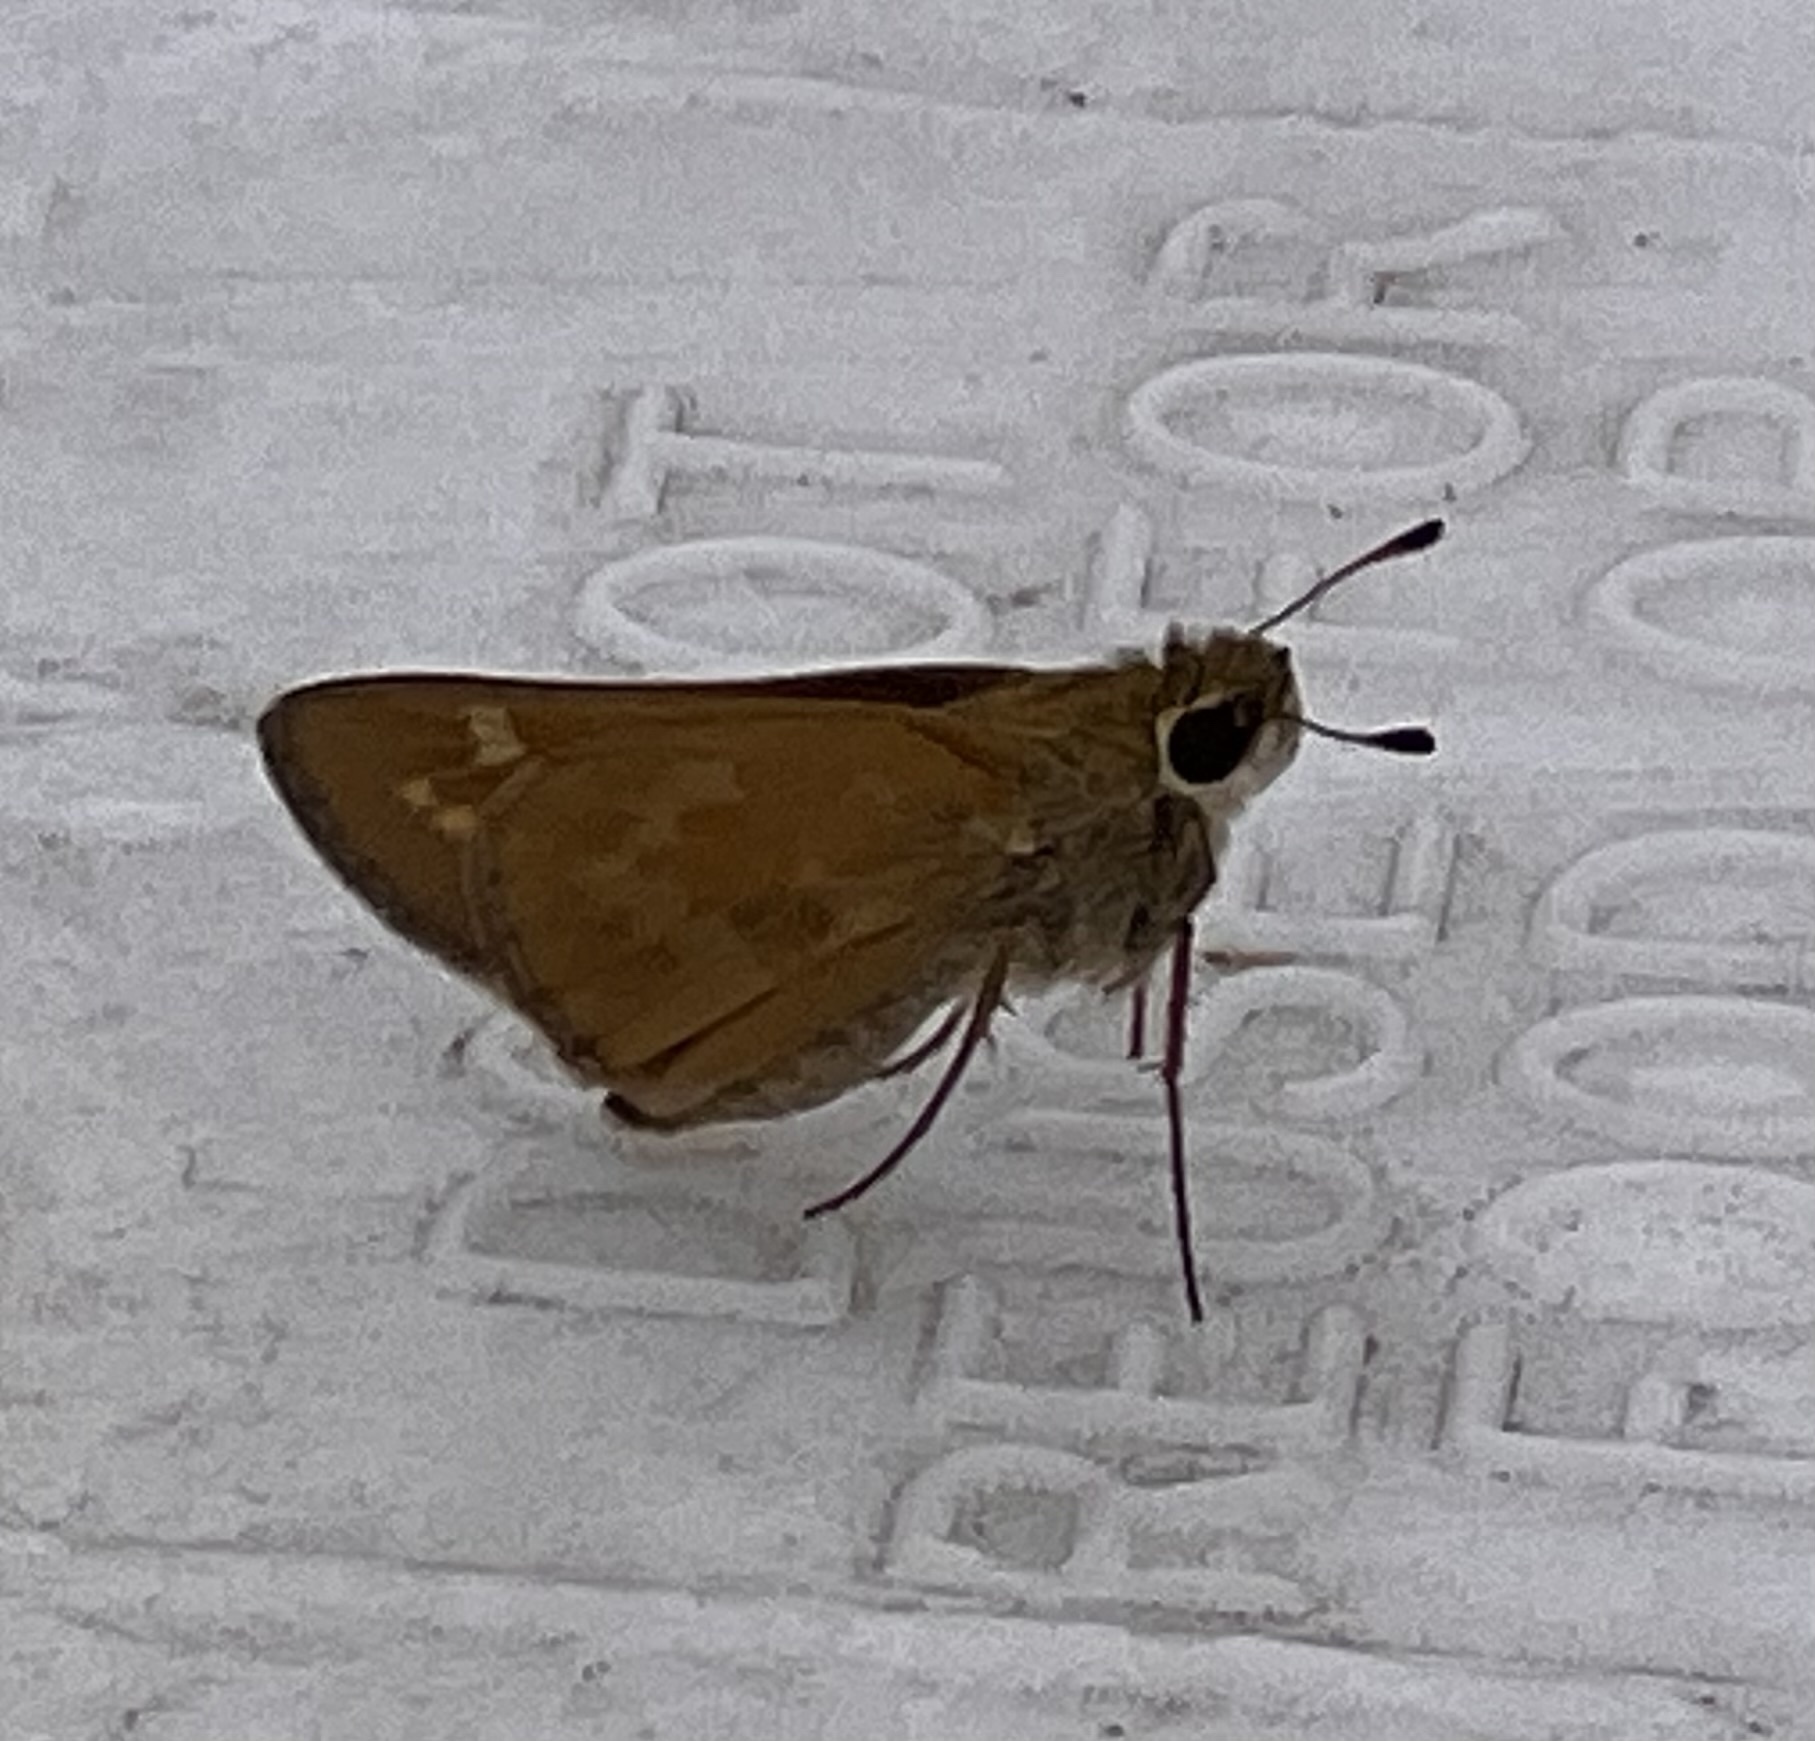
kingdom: Animalia
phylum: Arthropoda
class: Insecta
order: Lepidoptera
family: Hesperiidae
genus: Atalopedes
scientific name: Atalopedes
